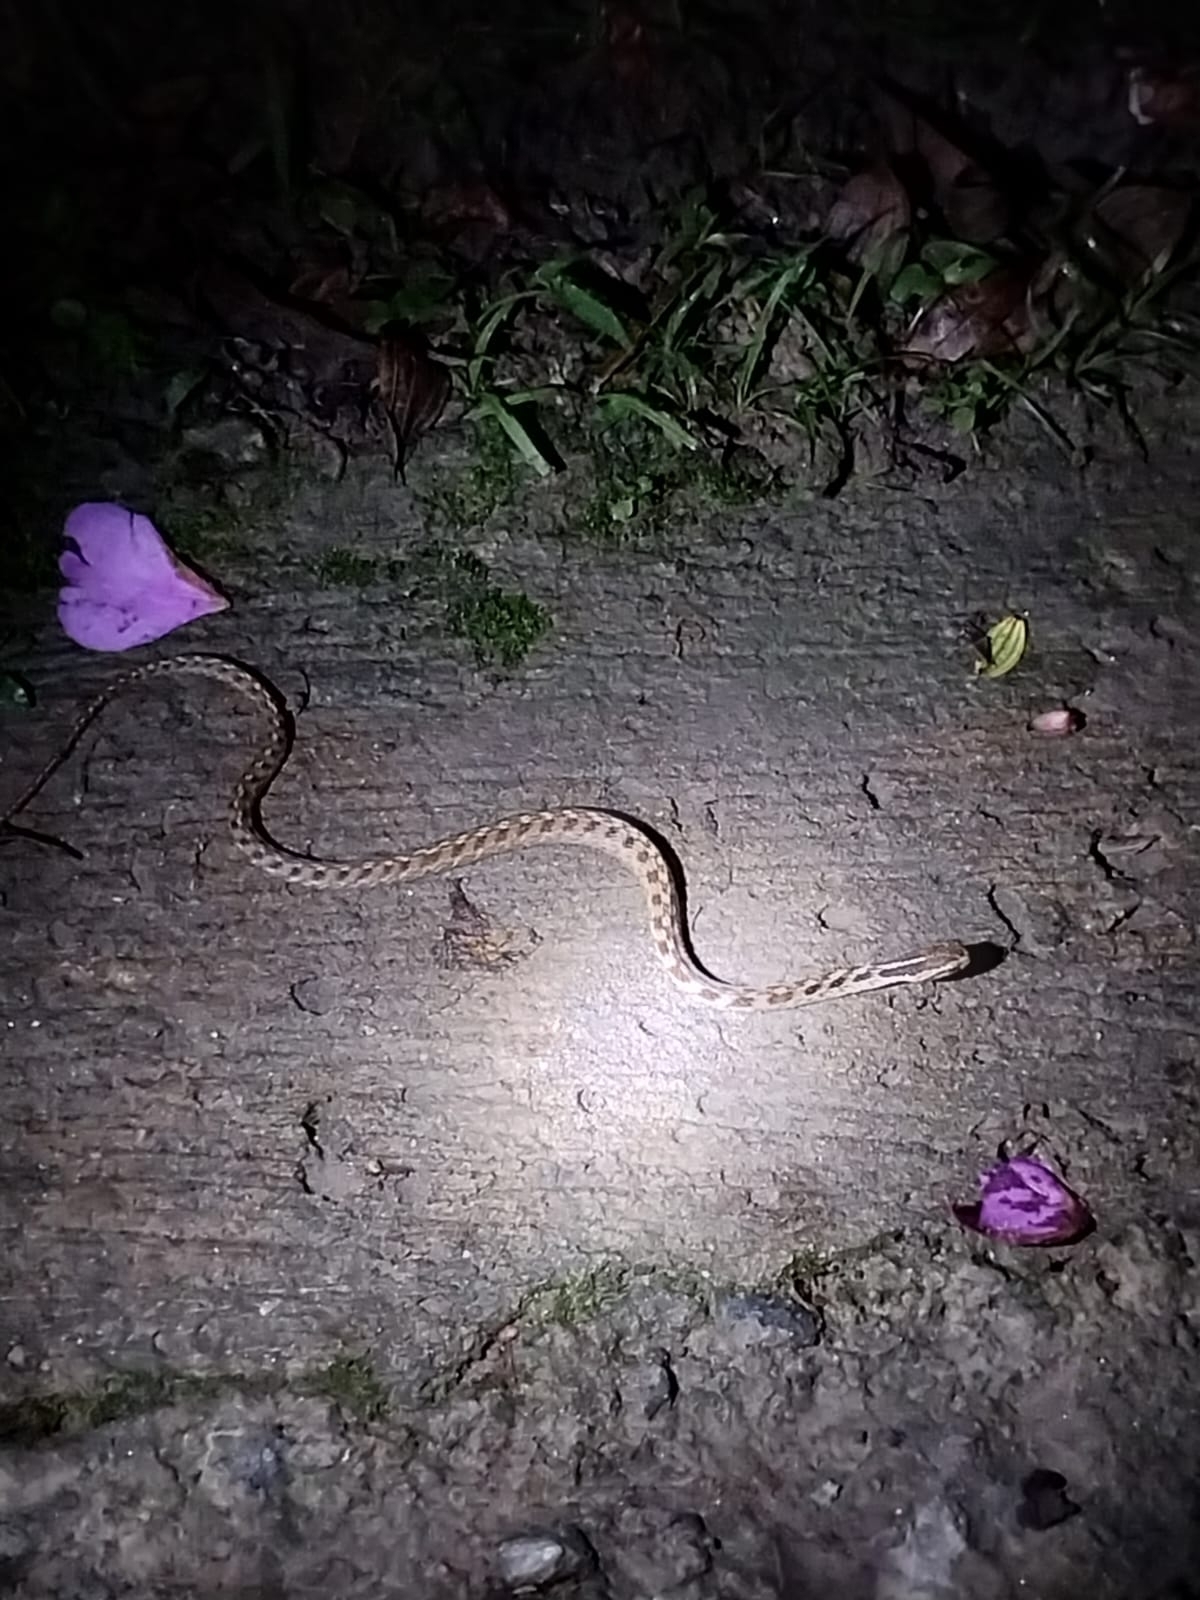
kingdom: Animalia
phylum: Chordata
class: Squamata
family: Colubridae
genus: Tomodon
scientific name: Tomodon dorsatus
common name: Pampas snake
